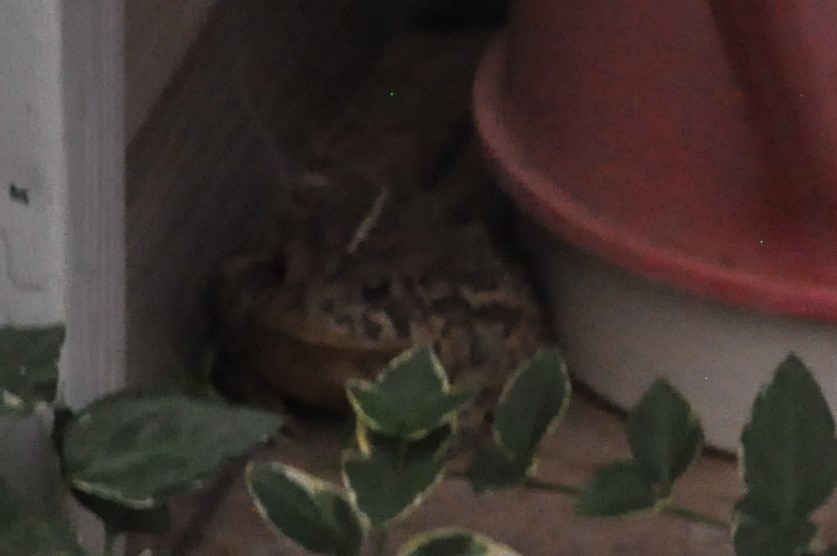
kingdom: Animalia
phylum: Chordata
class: Amphibia
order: Anura
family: Bufonidae
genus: Anaxyrus
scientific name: Anaxyrus woodhousii
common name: Woodhouse's toad
